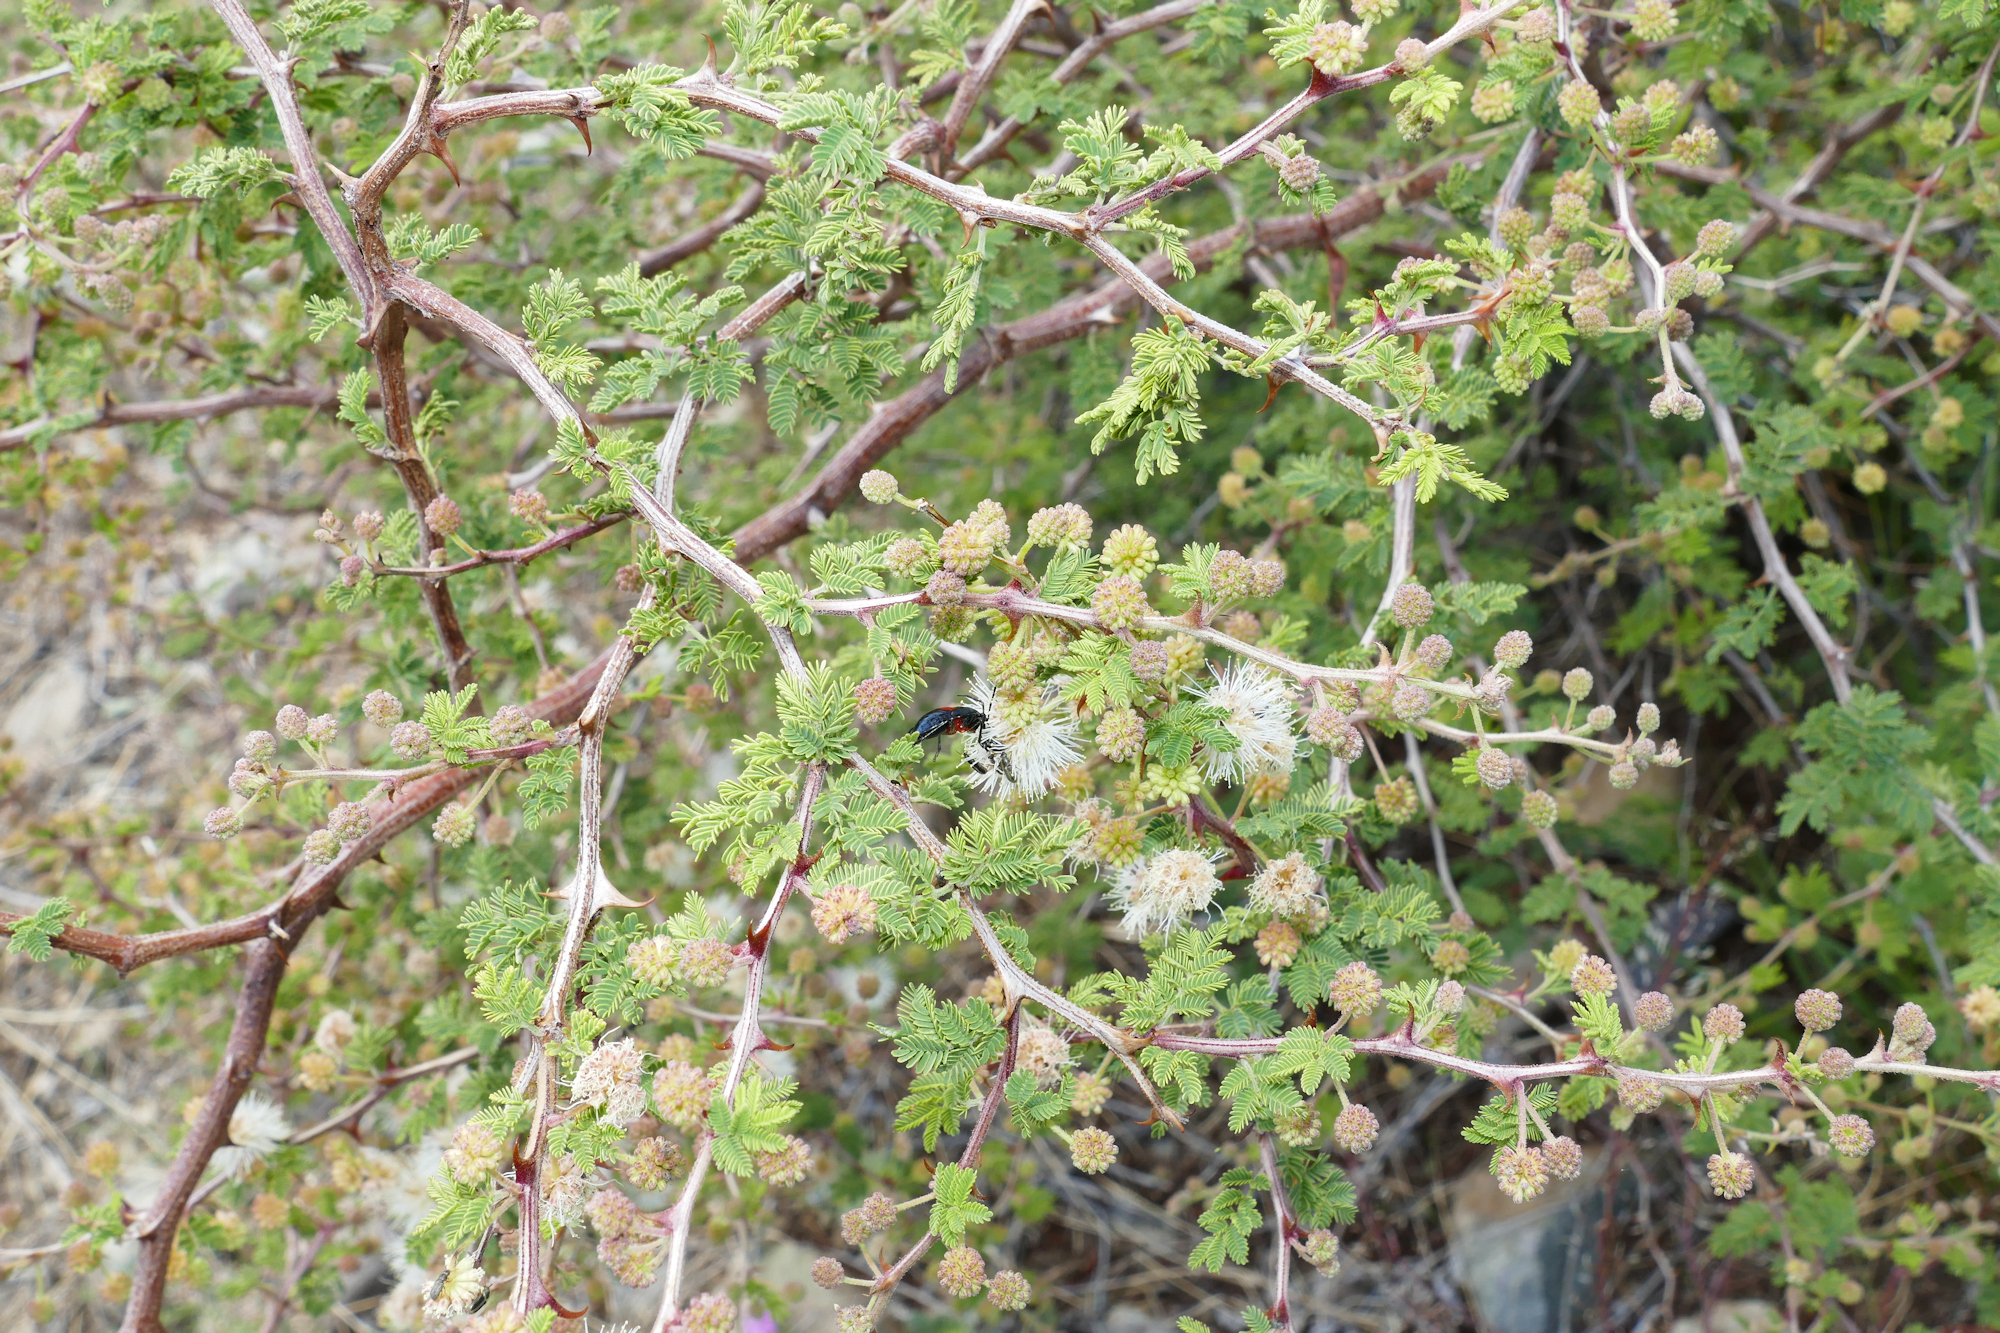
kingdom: Plantae
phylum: Tracheophyta
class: Magnoliopsida
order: Fabales
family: Fabaceae
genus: Mimosa
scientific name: Mimosa aculeaticarpa
